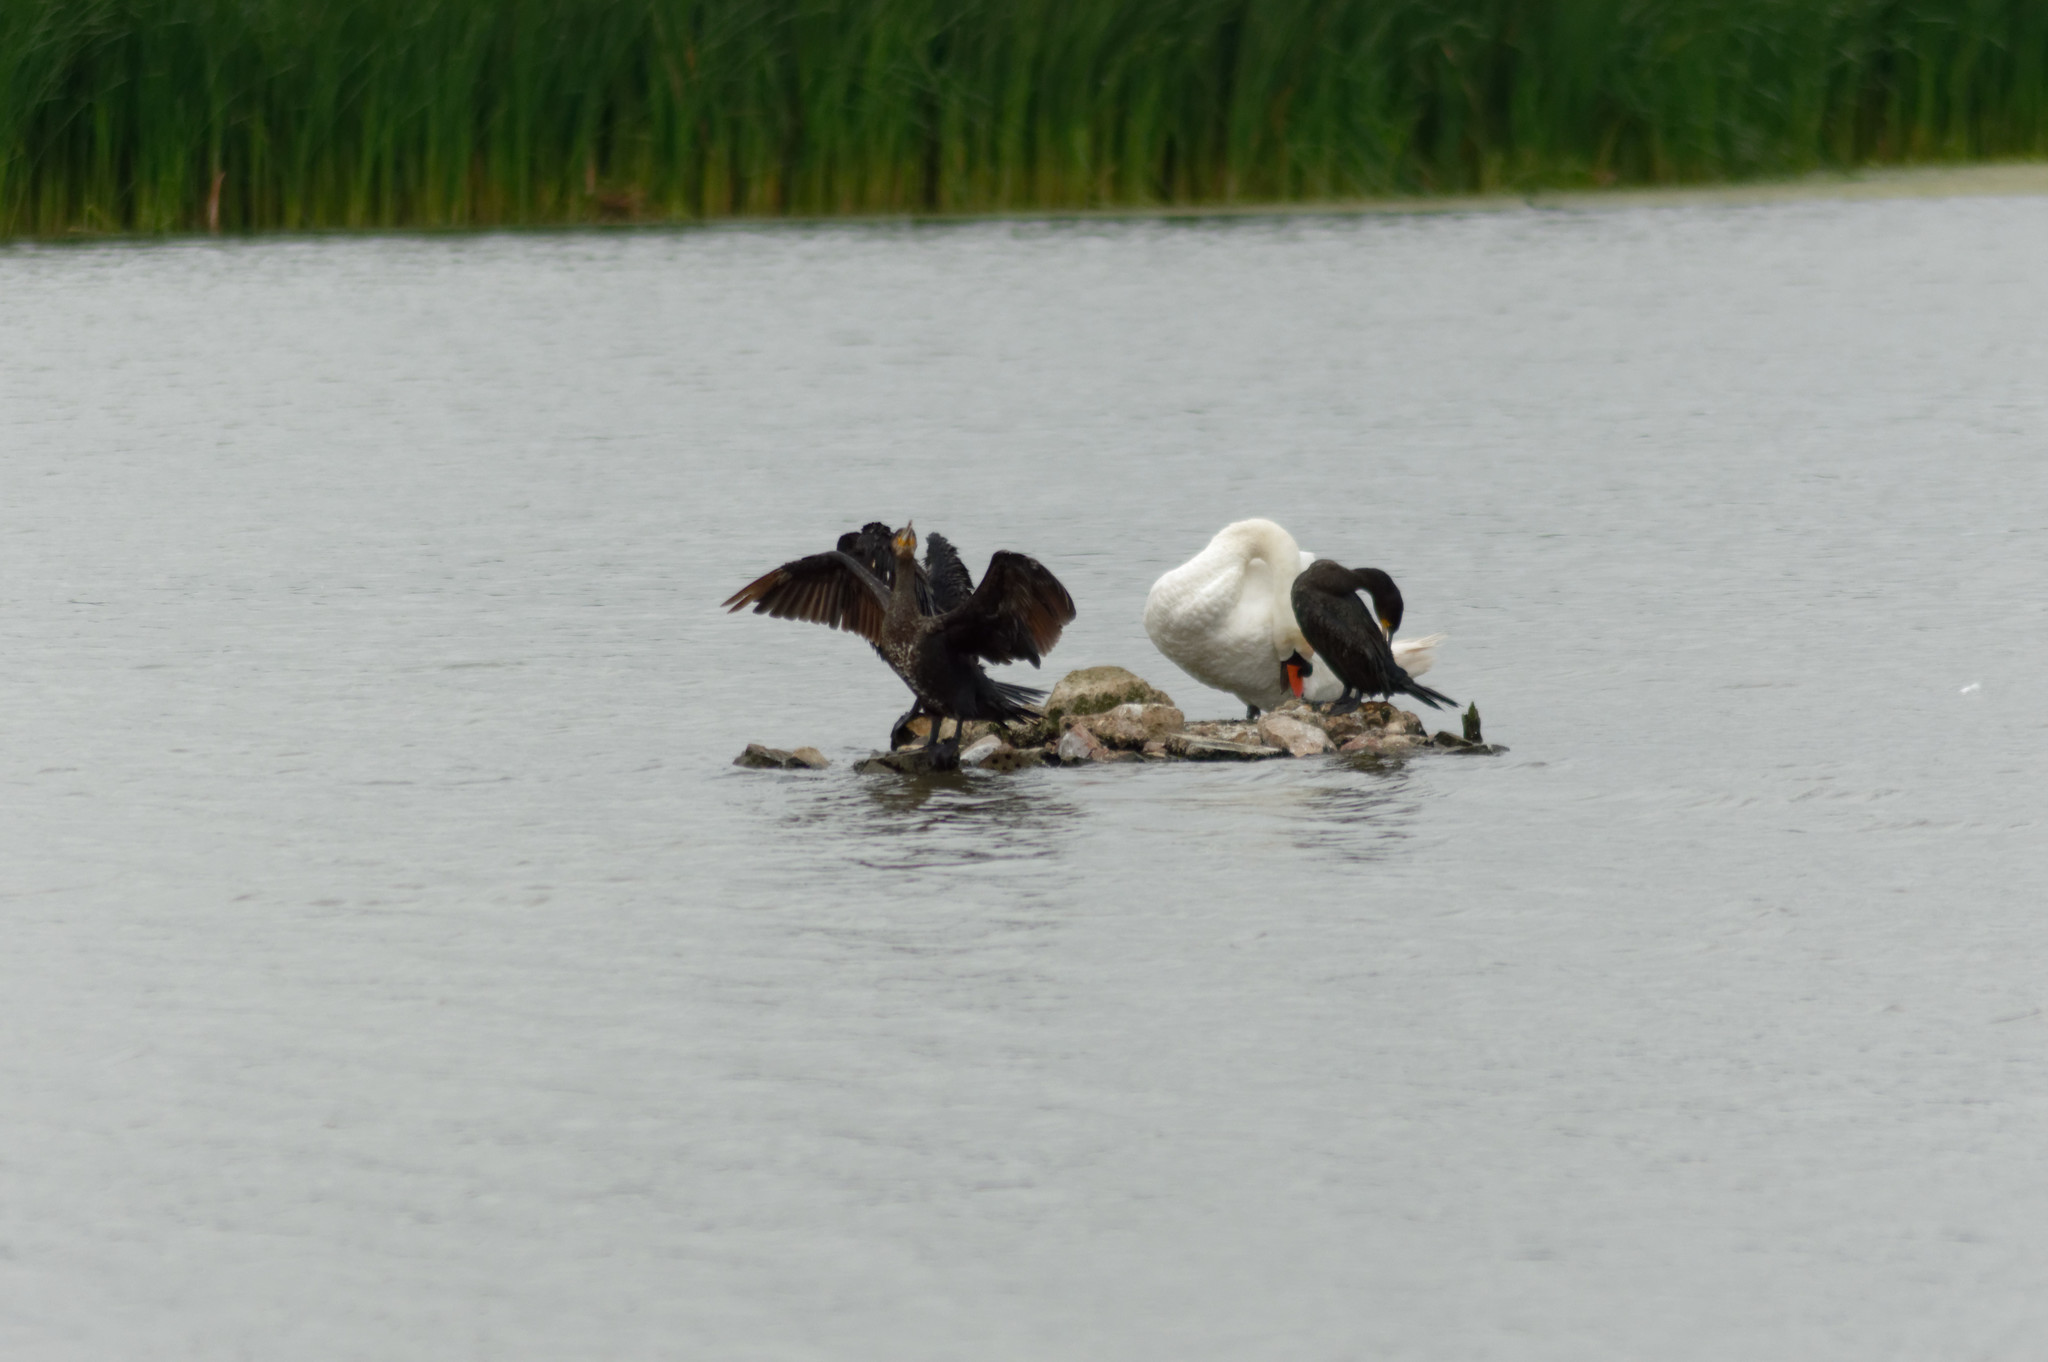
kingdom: Animalia
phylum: Chordata
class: Aves
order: Suliformes
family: Phalacrocoracidae
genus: Phalacrocorax
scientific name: Phalacrocorax carbo
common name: Great cormorant
